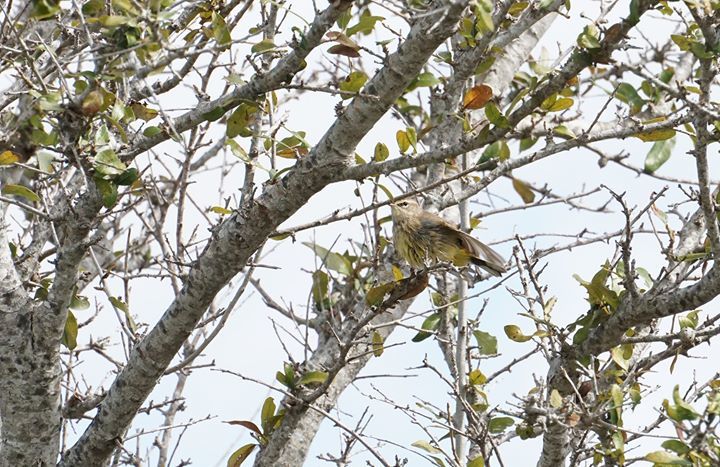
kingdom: Animalia
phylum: Chordata
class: Aves
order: Passeriformes
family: Parulidae
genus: Setophaga
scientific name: Setophaga palmarum
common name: Palm warbler
